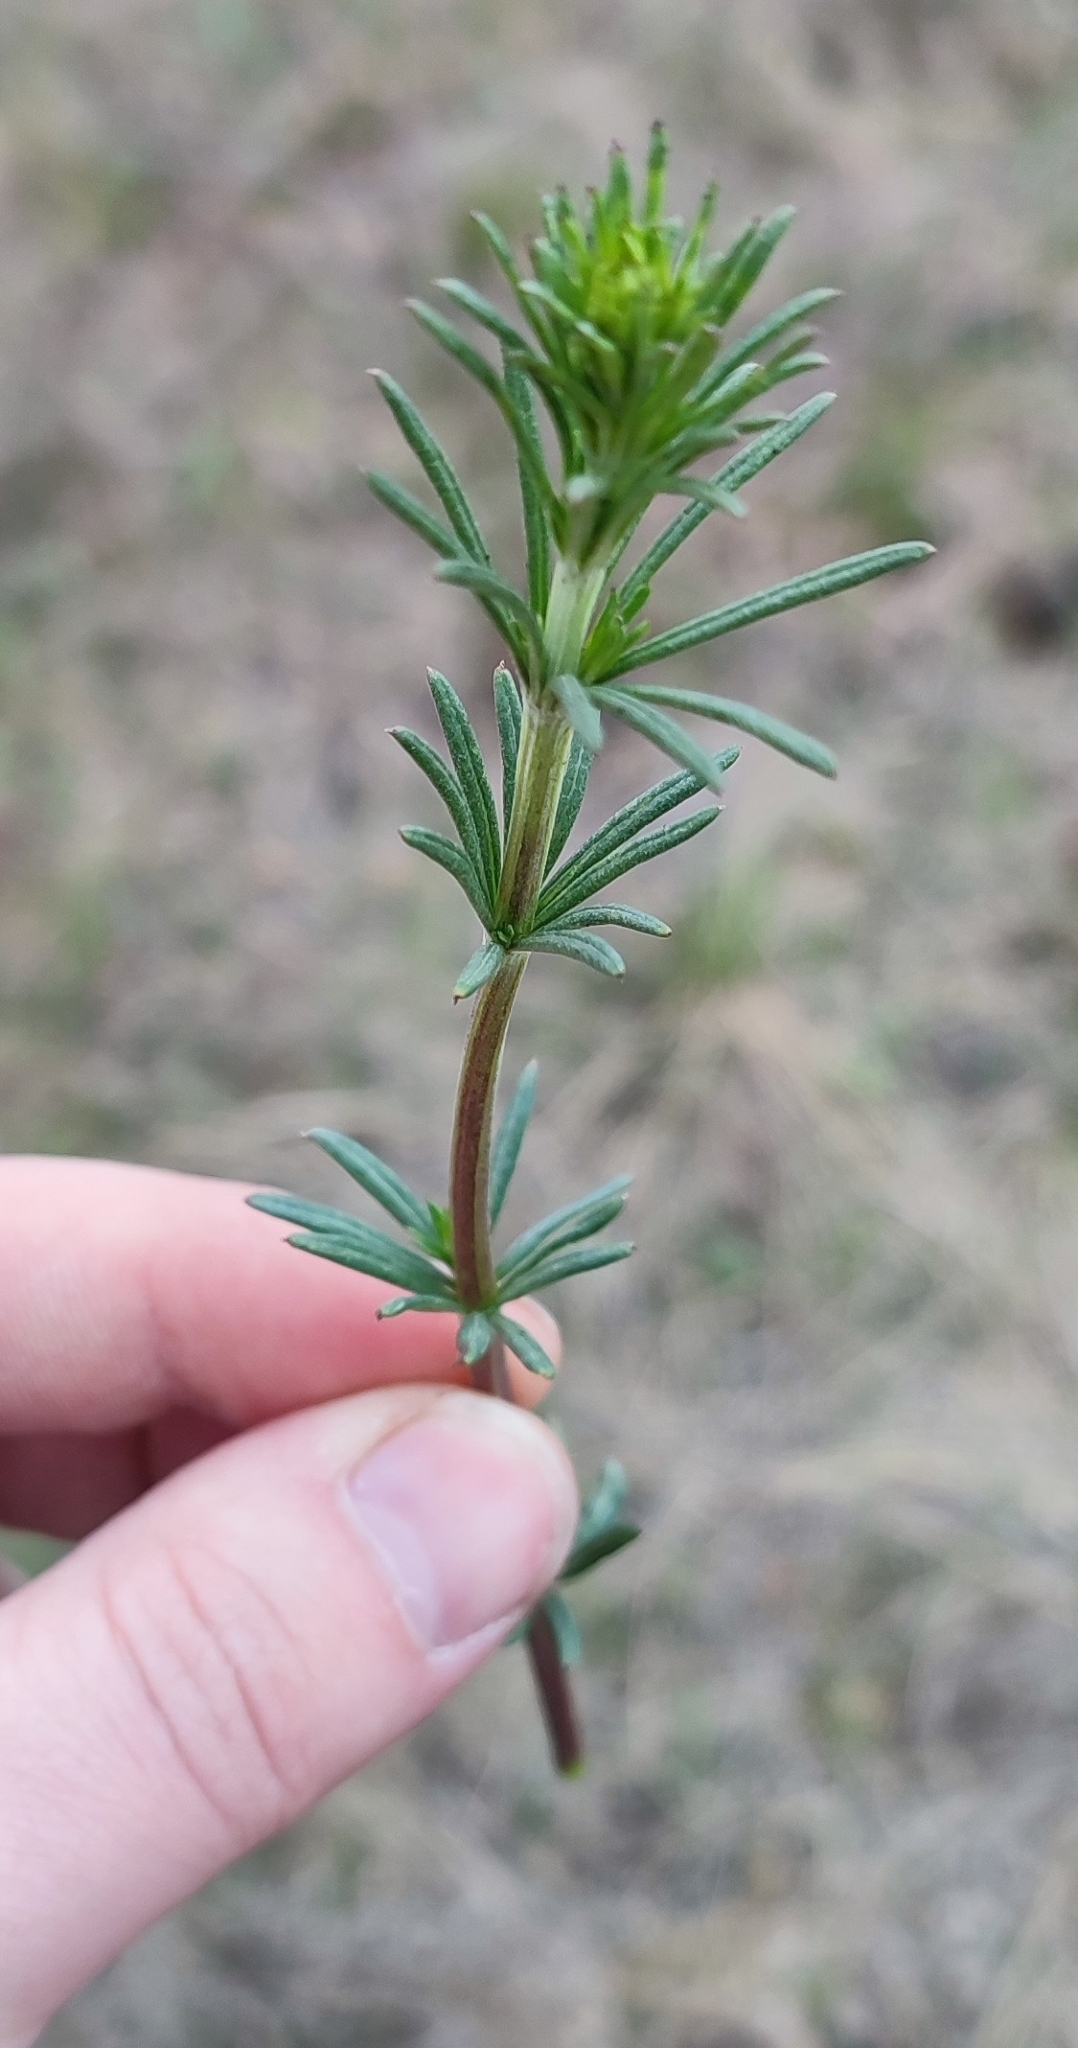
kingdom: Plantae
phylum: Tracheophyta
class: Magnoliopsida
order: Gentianales
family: Rubiaceae
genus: Galium
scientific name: Galium verum
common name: Lady's bedstraw
